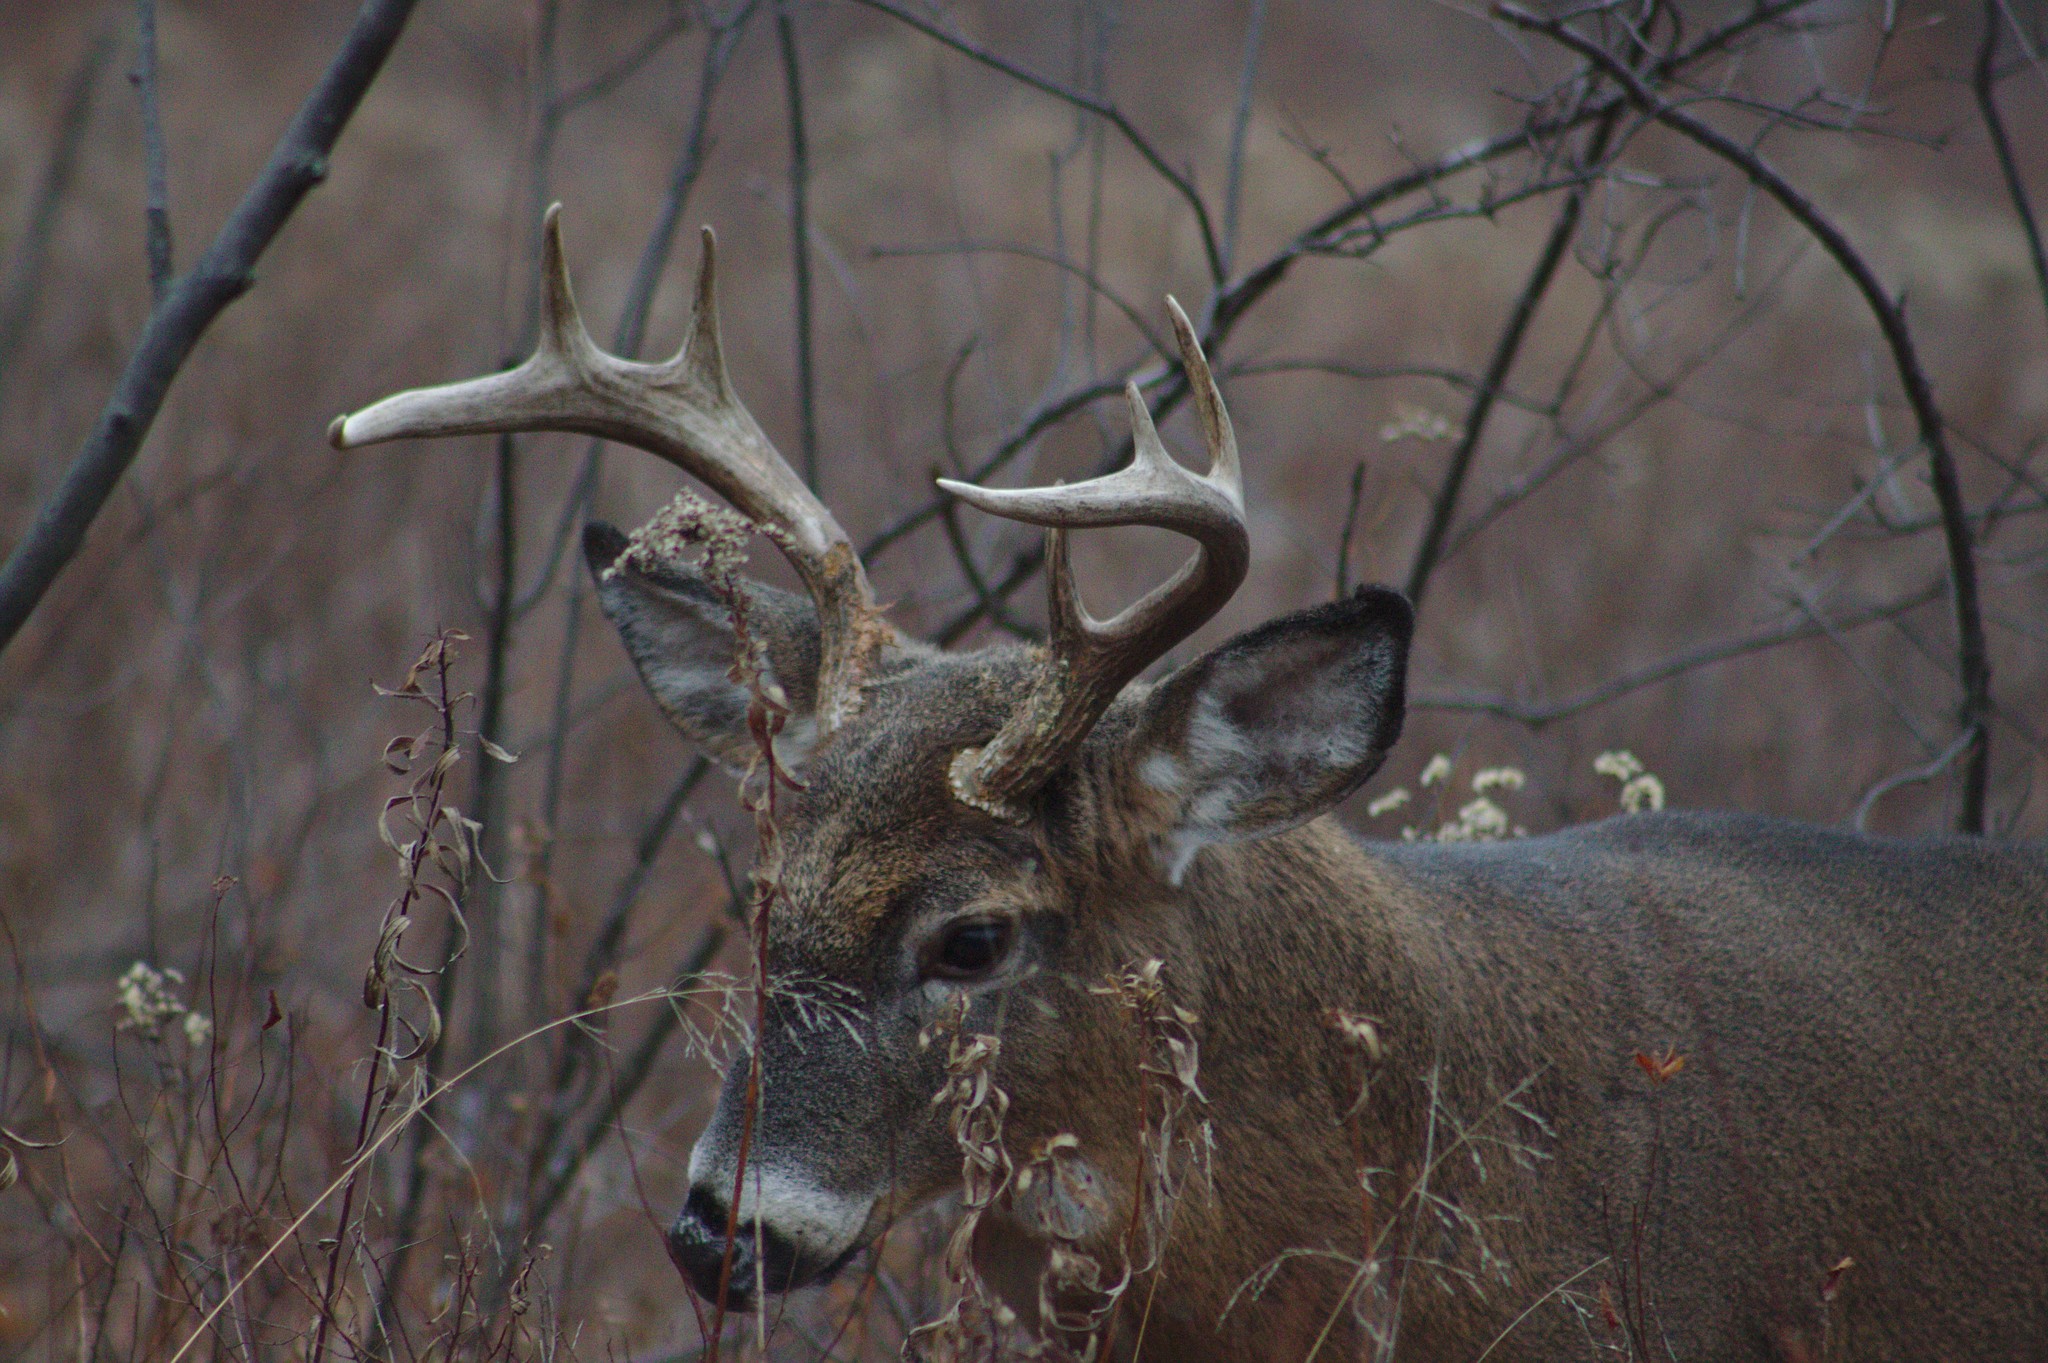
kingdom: Animalia
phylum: Chordata
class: Mammalia
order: Artiodactyla
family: Cervidae
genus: Odocoileus
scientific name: Odocoileus virginianus
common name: White-tailed deer
